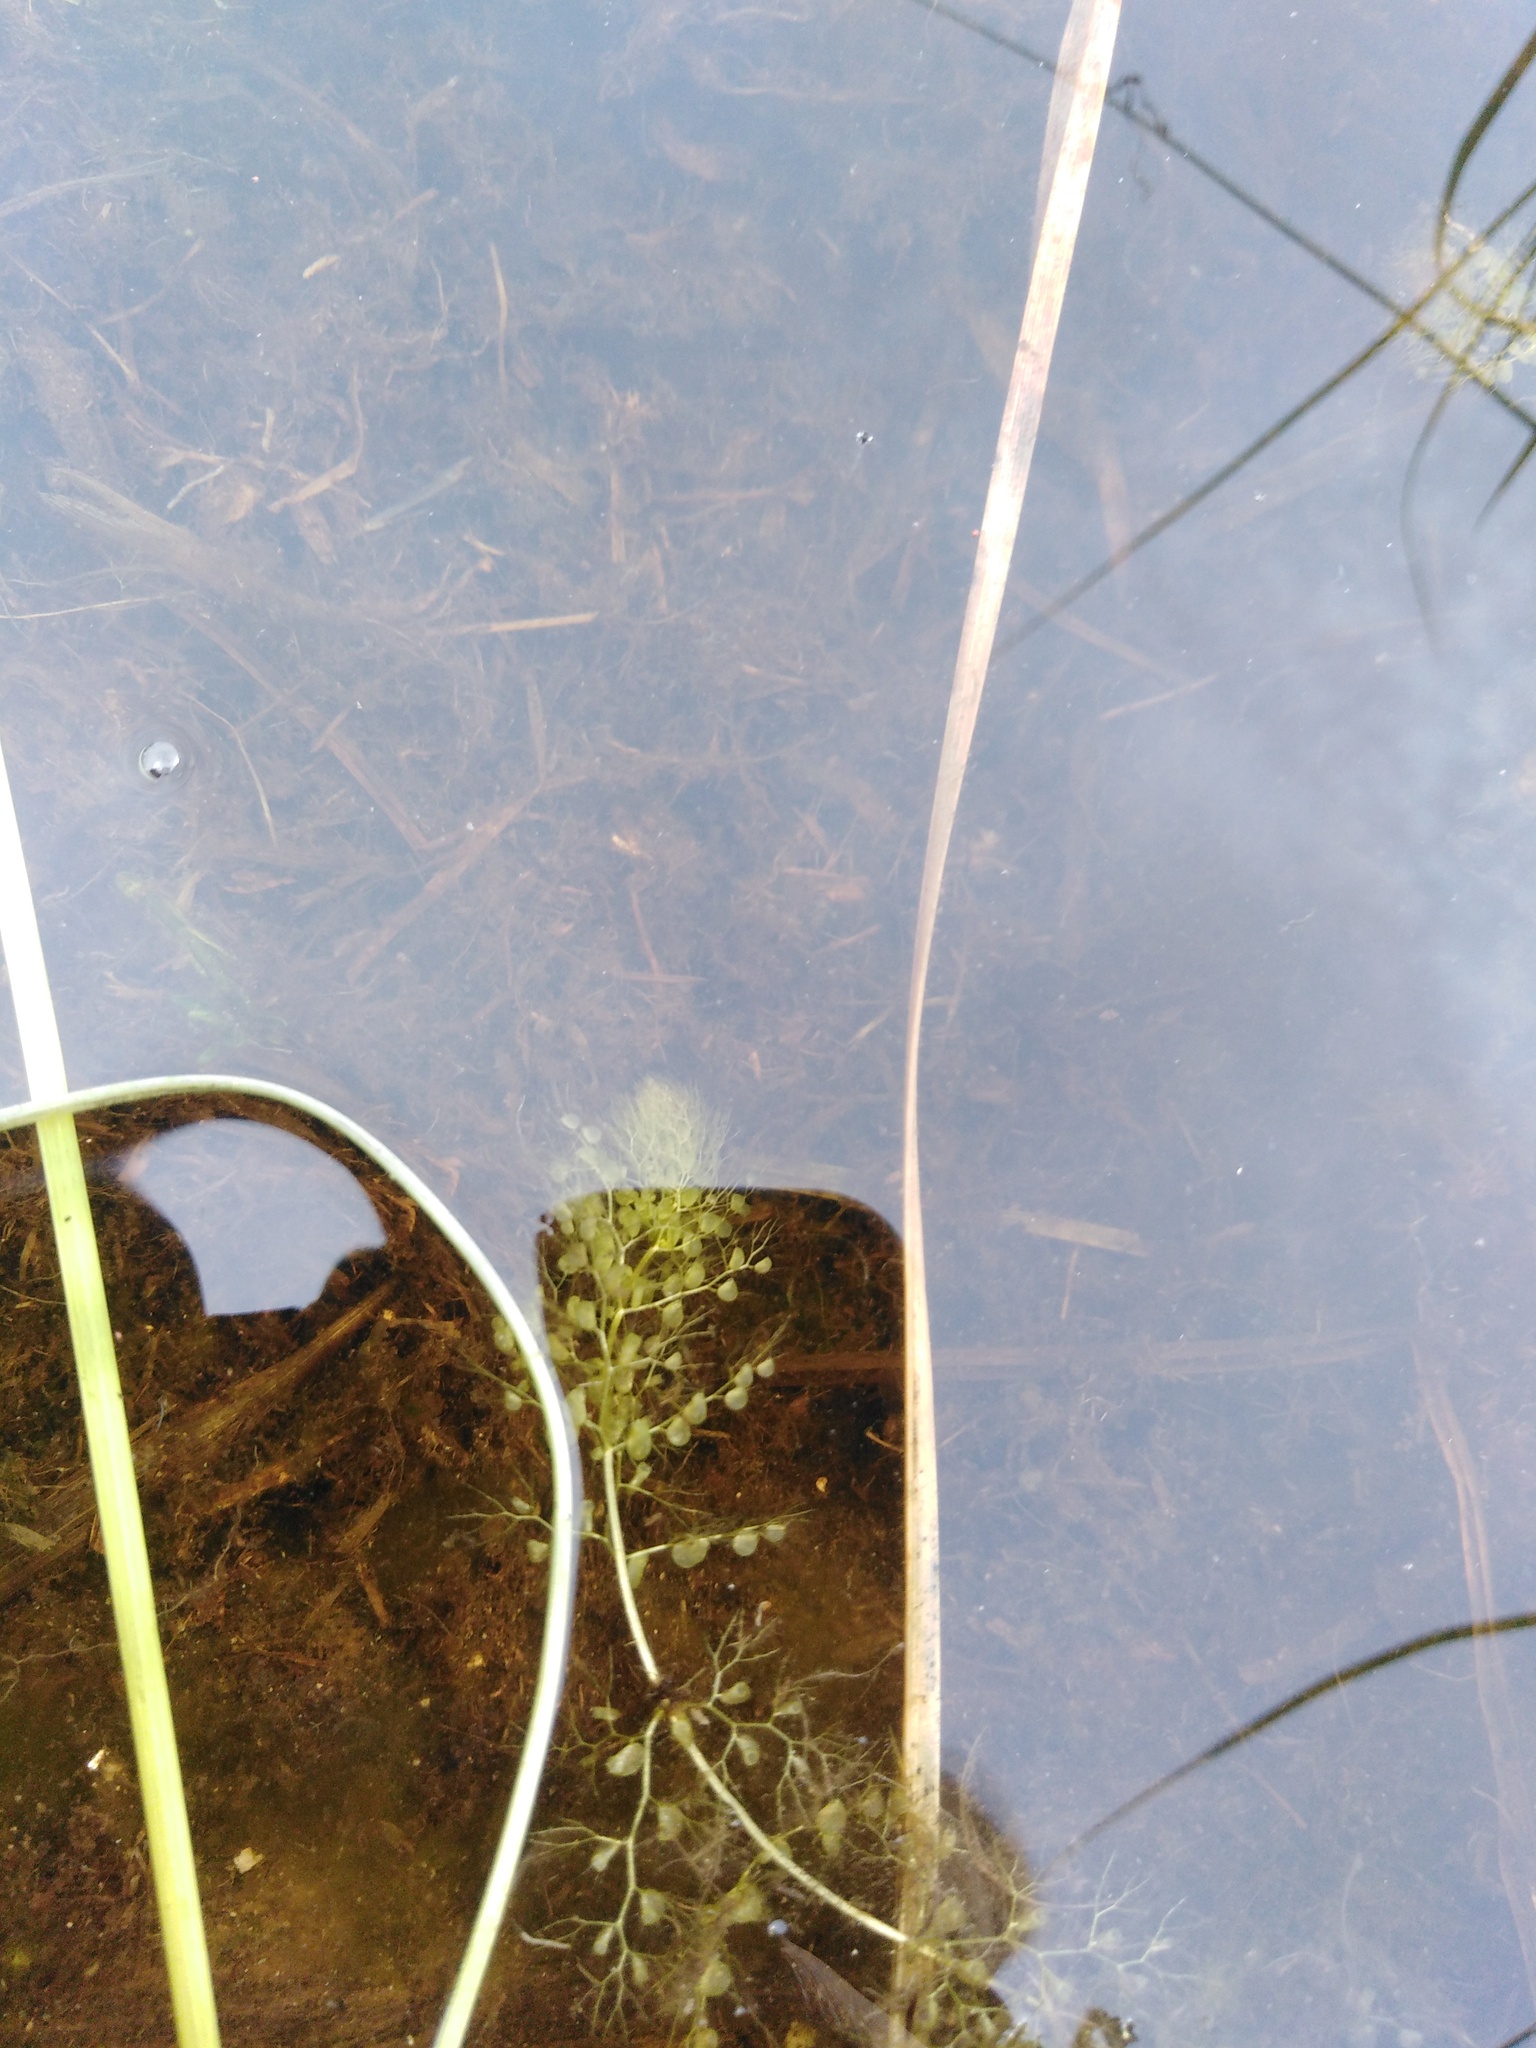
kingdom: Plantae
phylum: Tracheophyta
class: Magnoliopsida
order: Lamiales
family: Lentibulariaceae
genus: Utricularia
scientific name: Utricularia minor
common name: Lesser bladderwort
